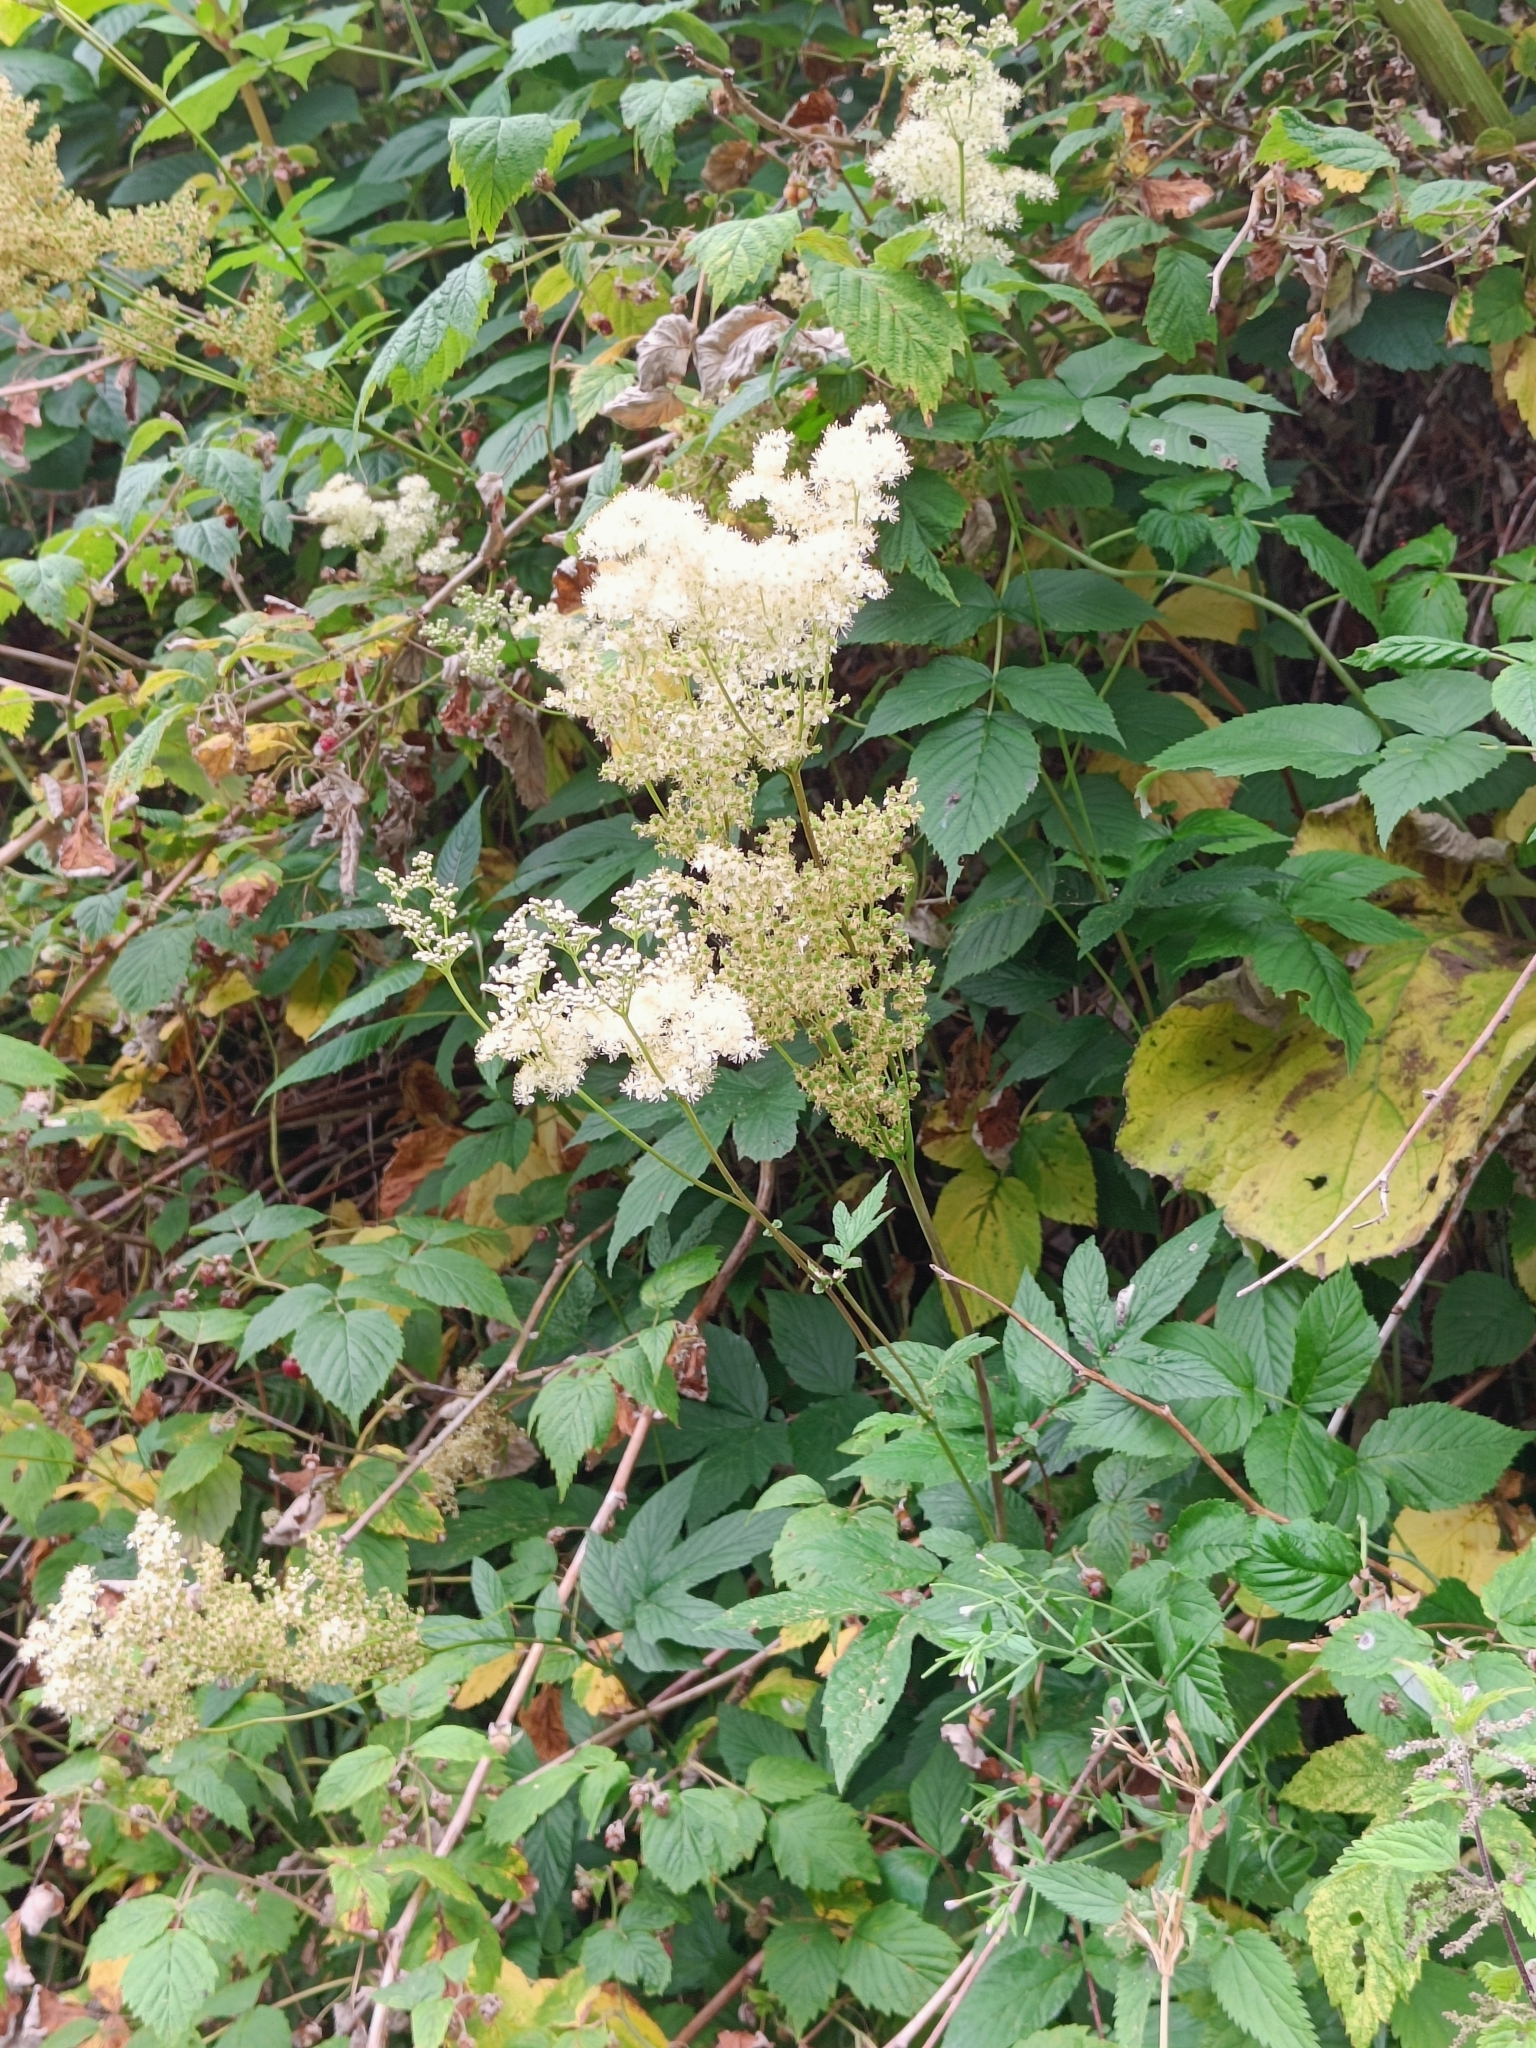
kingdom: Plantae
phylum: Tracheophyta
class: Magnoliopsida
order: Rosales
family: Rosaceae
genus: Filipendula
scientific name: Filipendula ulmaria
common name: Meadowsweet
